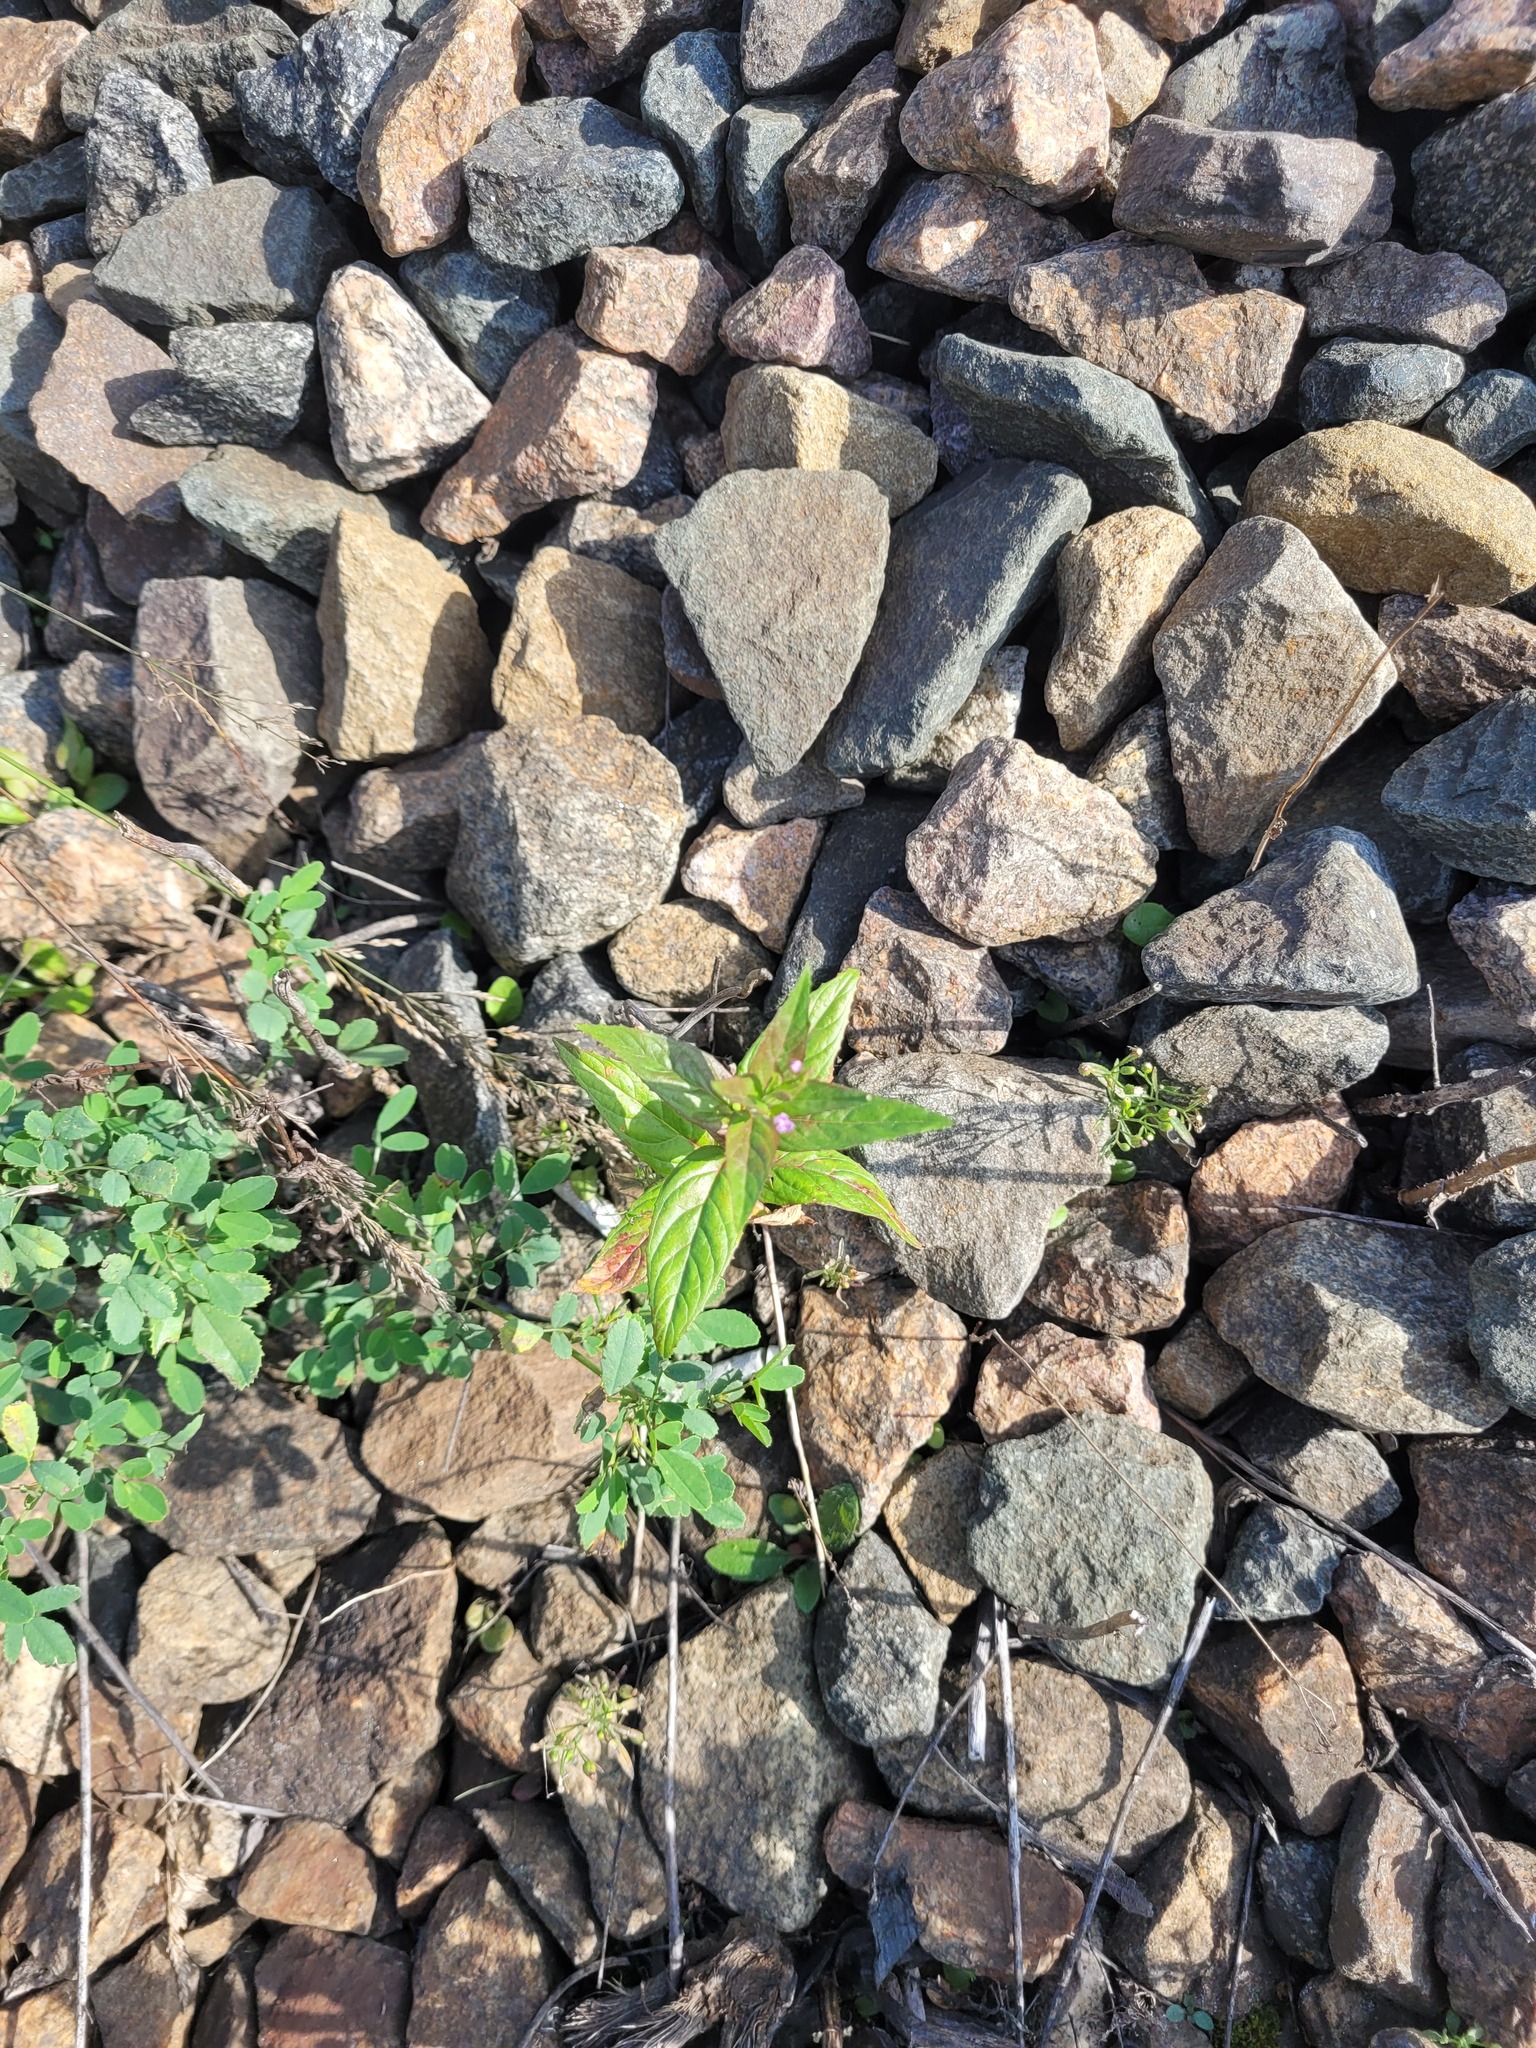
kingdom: Plantae
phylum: Tracheophyta
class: Magnoliopsida
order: Myrtales
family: Onagraceae
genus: Epilobium
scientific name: Epilobium ciliatum
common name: American willowherb
